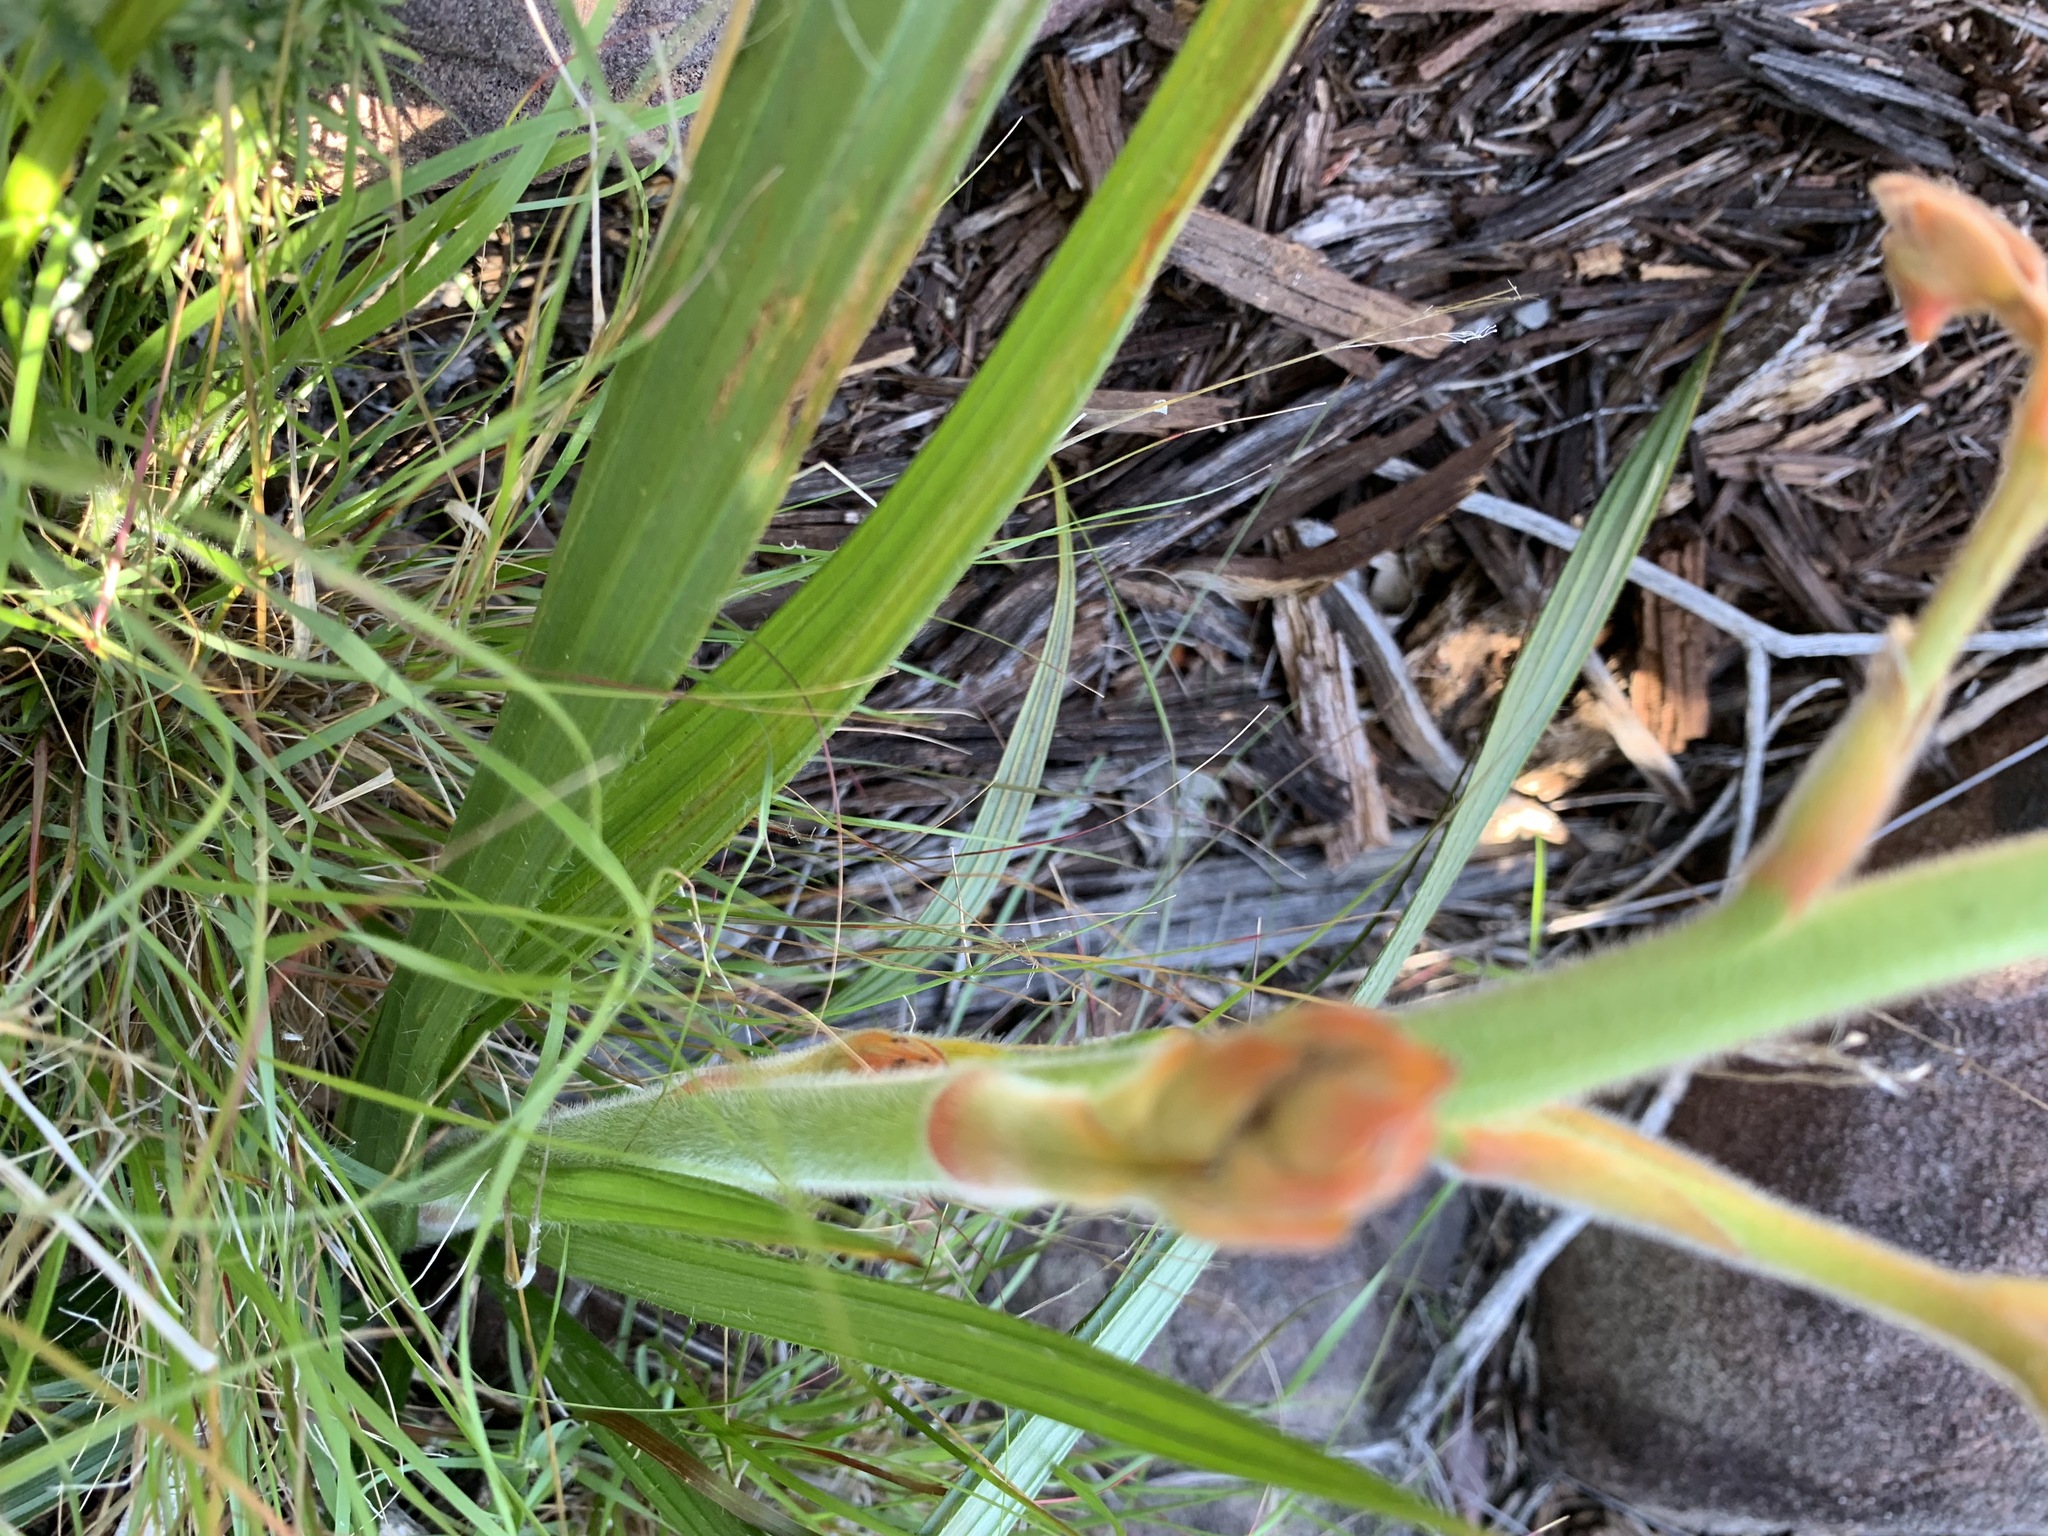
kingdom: Plantae
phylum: Tracheophyta
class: Liliopsida
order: Commelinales
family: Haemodoraceae
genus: Wachendorfia
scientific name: Wachendorfia paniculata
